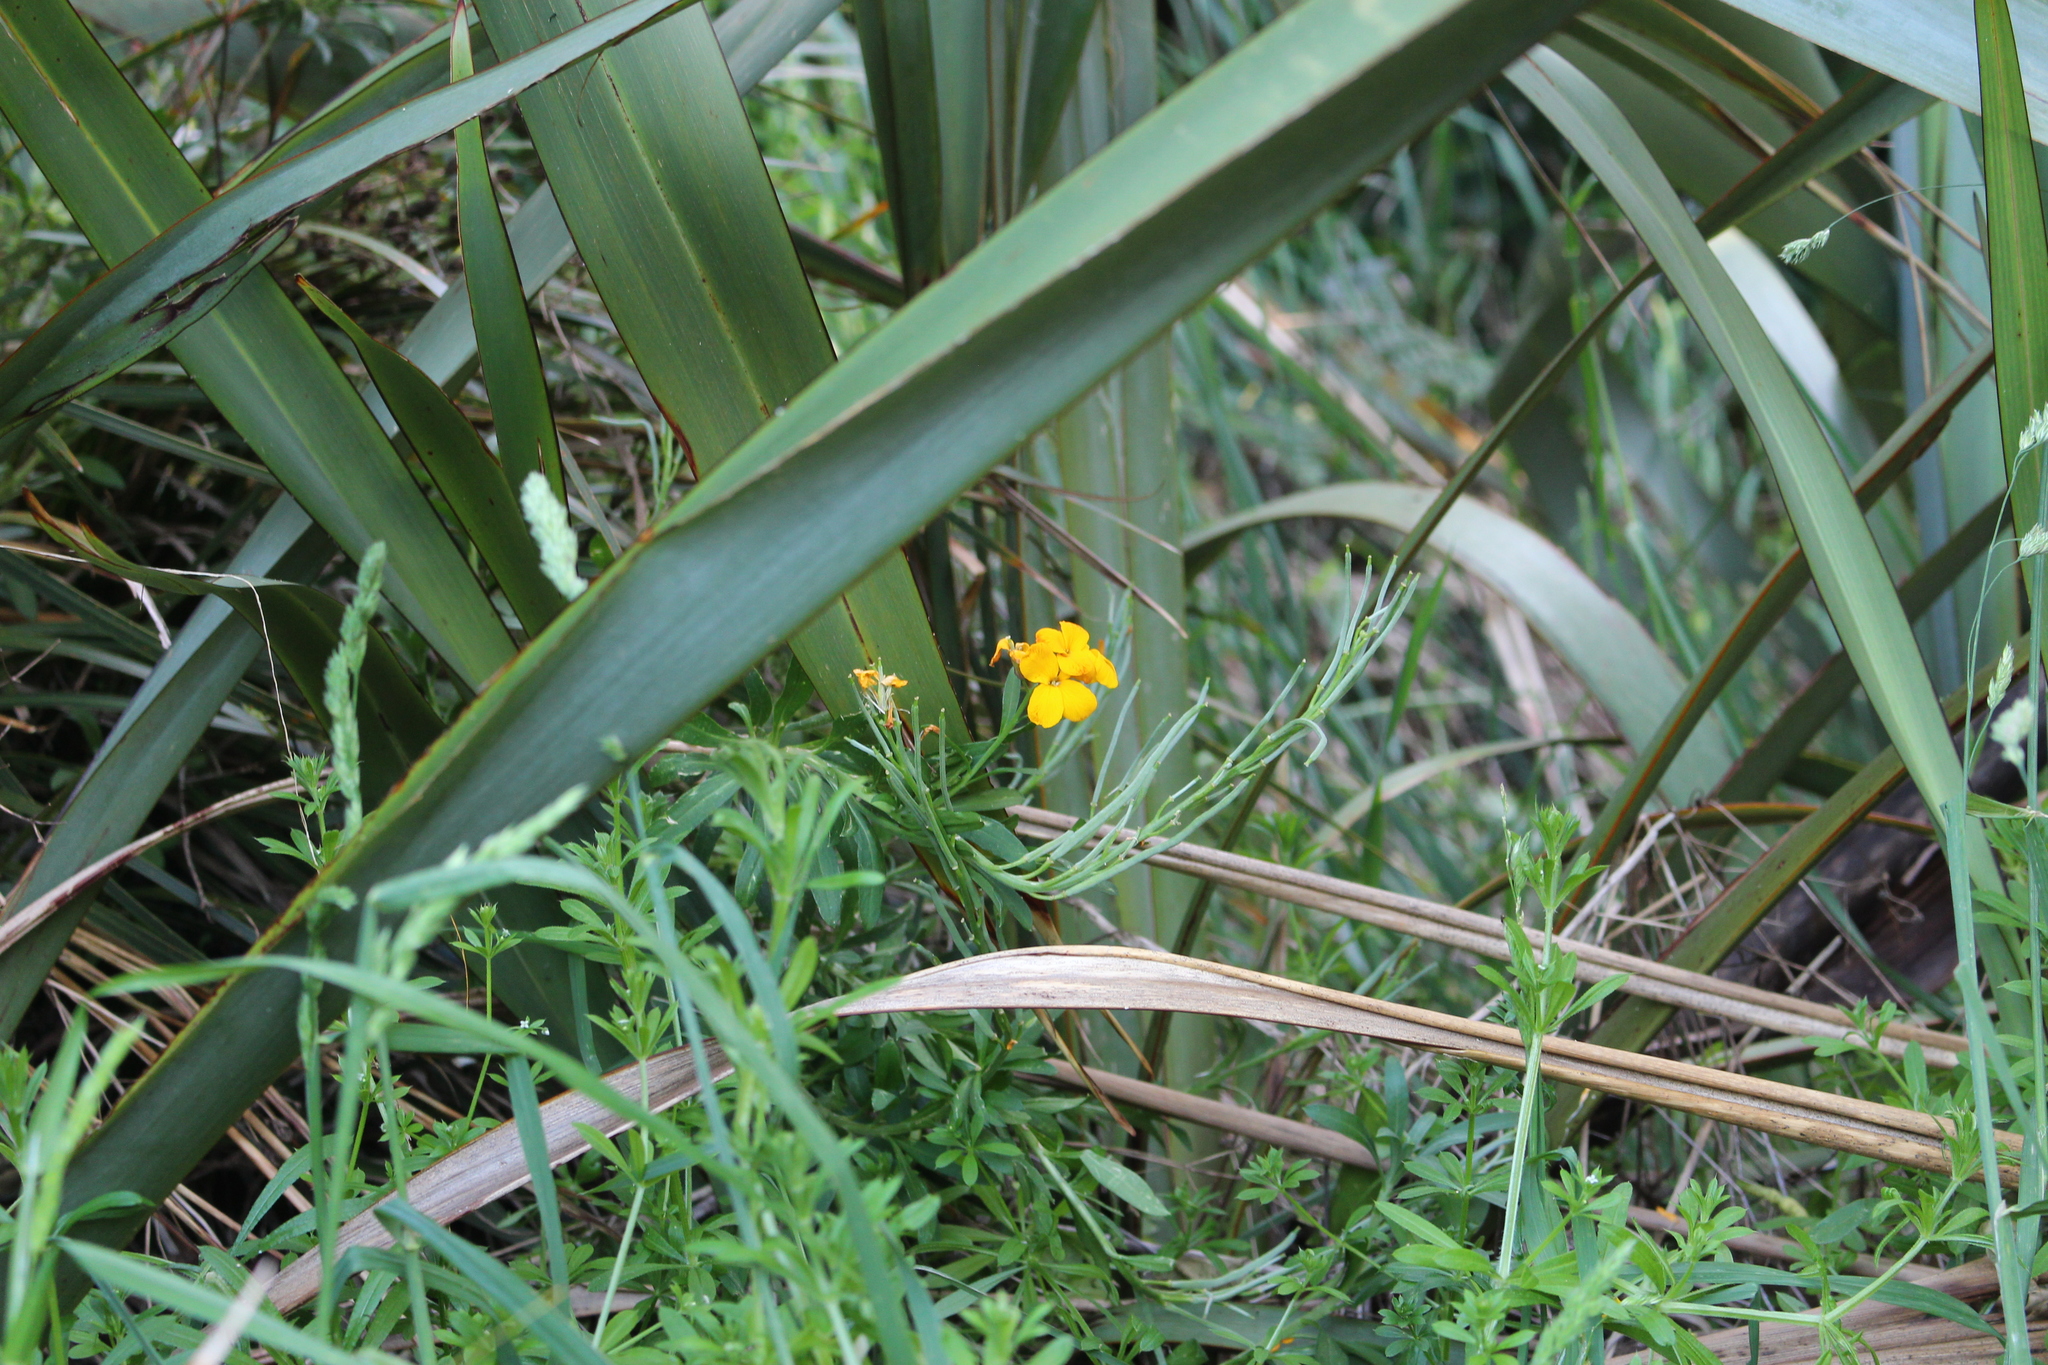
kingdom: Plantae
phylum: Tracheophyta
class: Magnoliopsida
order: Brassicales
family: Brassicaceae
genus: Erysimum
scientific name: Erysimum cheiri
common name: Wallflower
